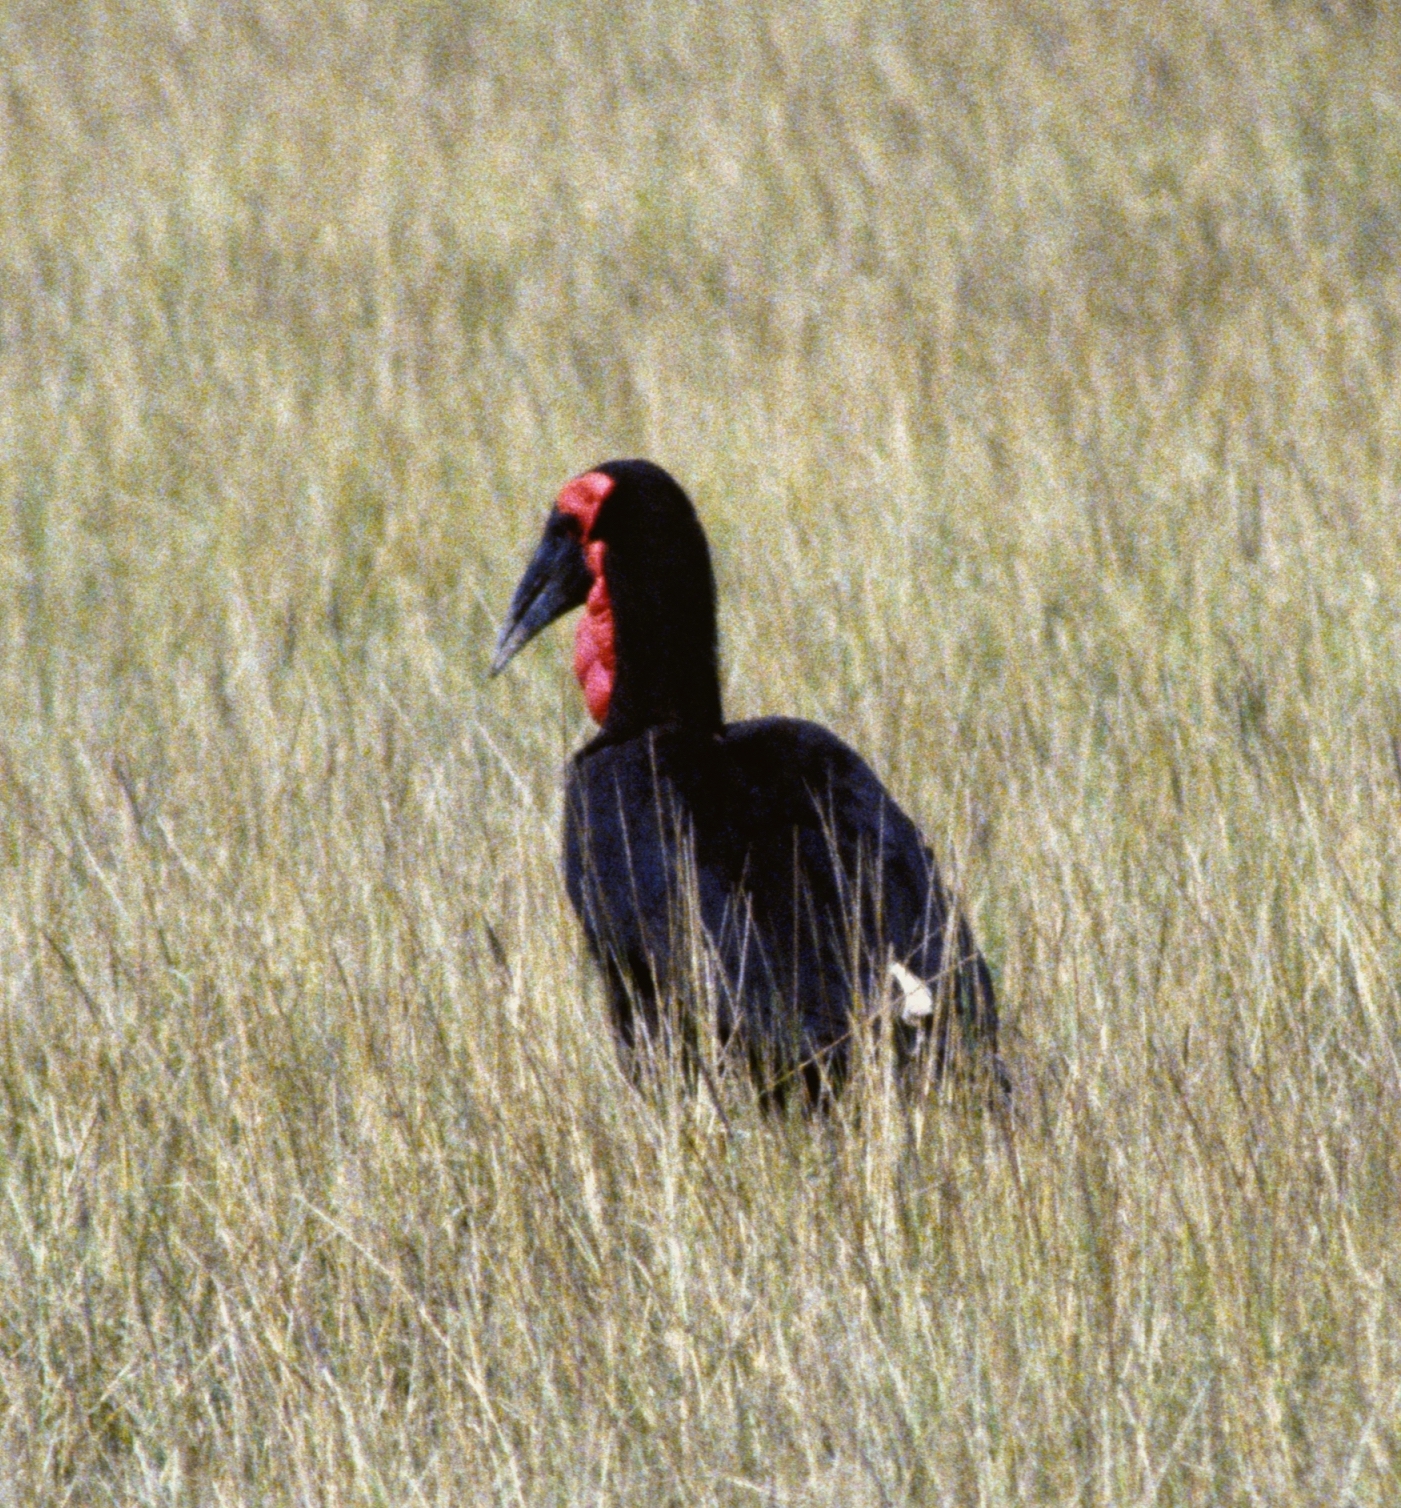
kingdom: Animalia
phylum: Chordata
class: Aves
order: Bucerotiformes
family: Bucorvidae
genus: Bucorvus
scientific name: Bucorvus leadbeateri
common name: Southern ground-hornbill
